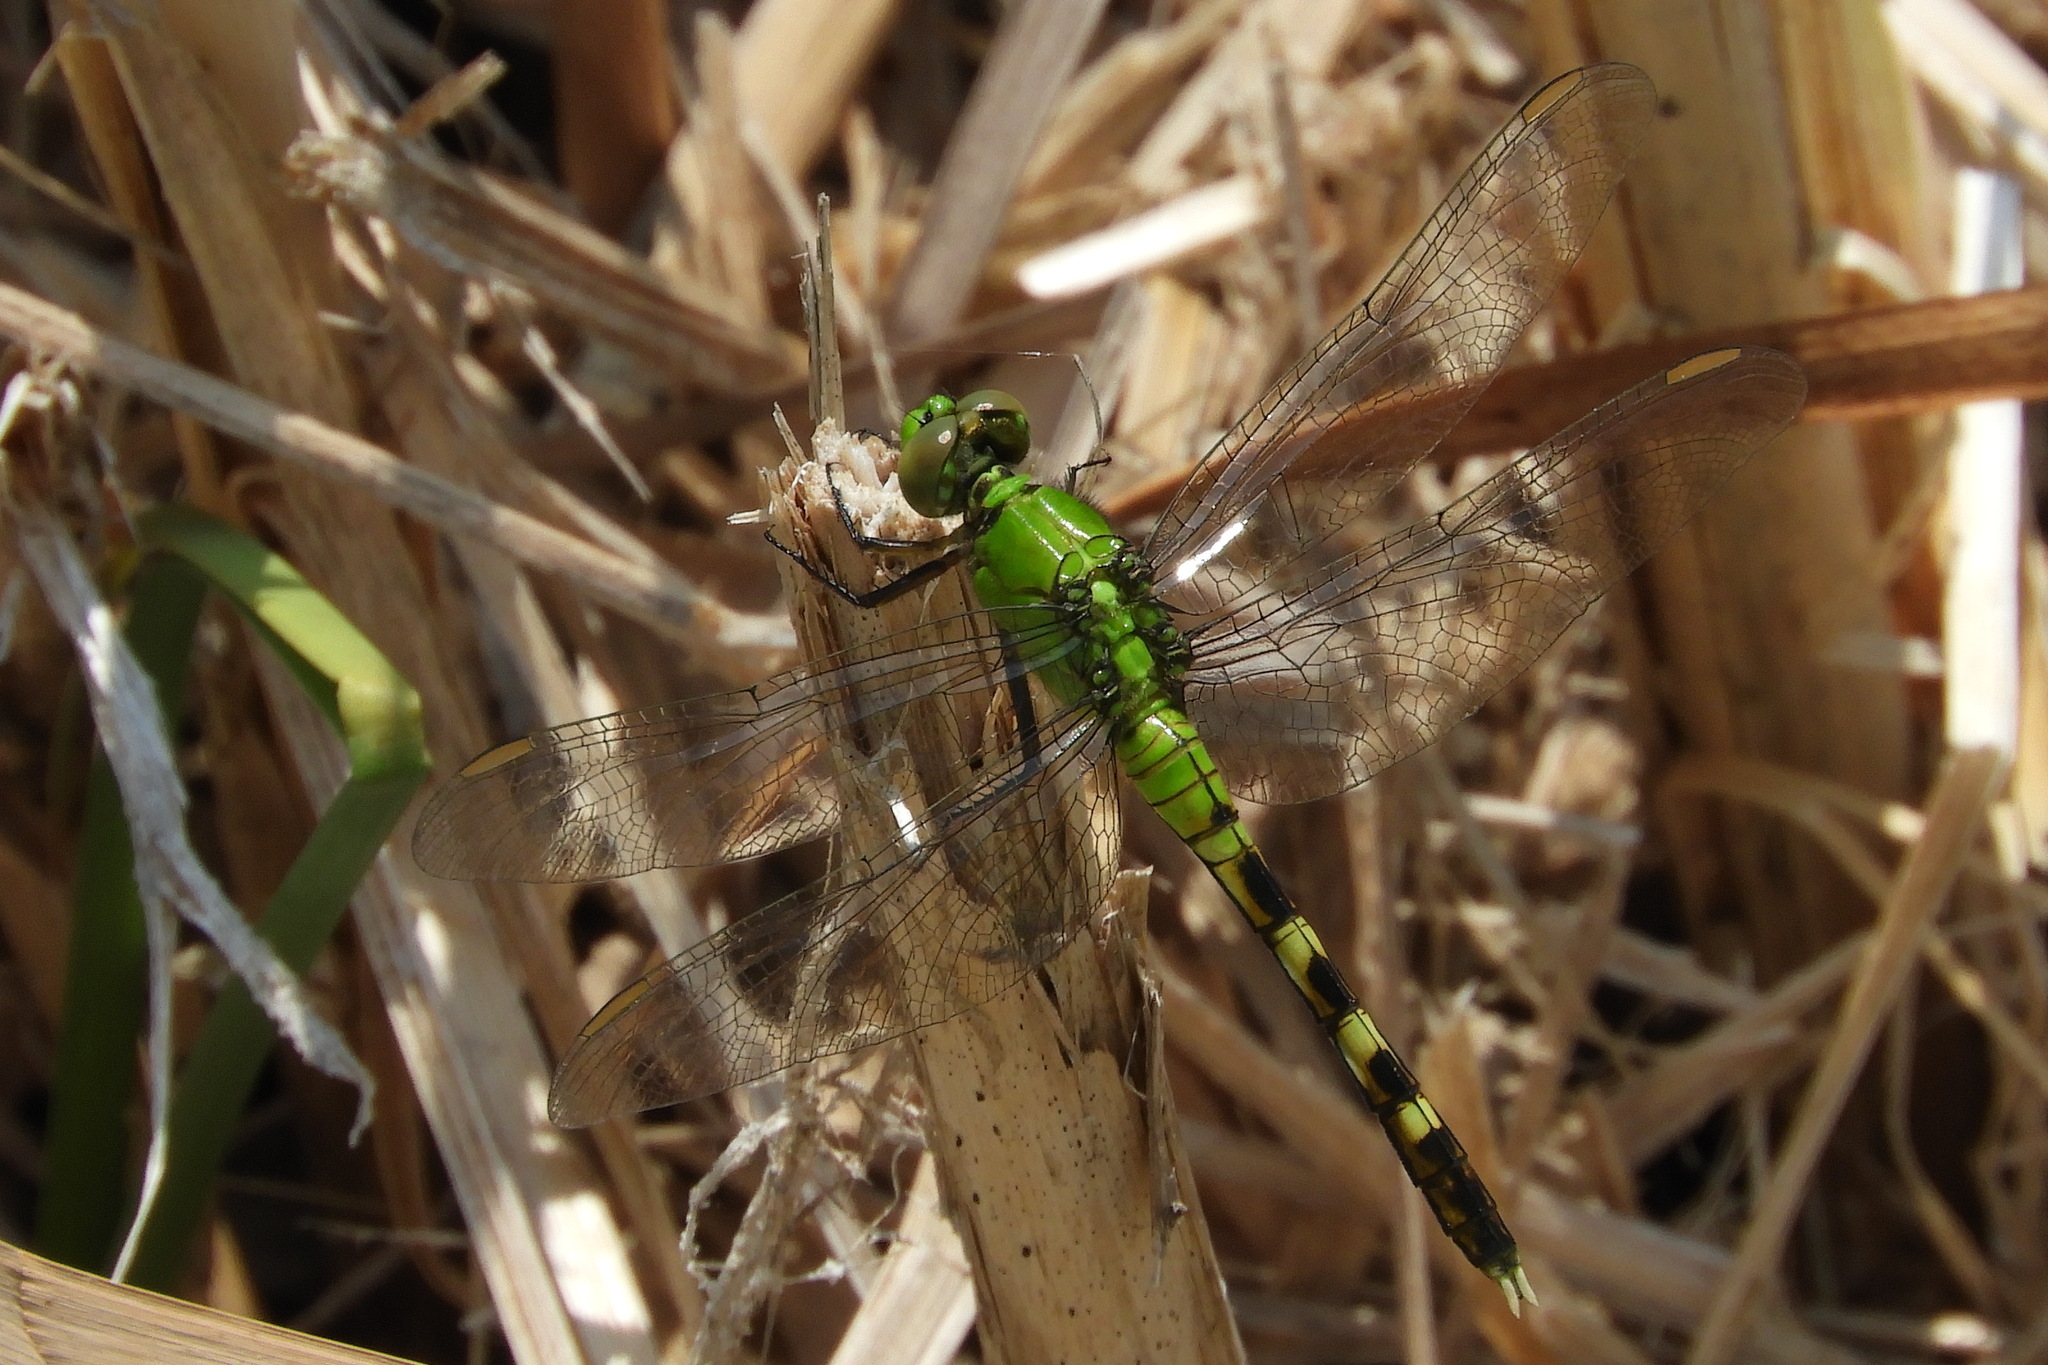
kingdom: Animalia
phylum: Arthropoda
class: Insecta
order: Odonata
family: Libellulidae
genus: Erythemis
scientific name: Erythemis simplicicollis
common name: Eastern pondhawk
